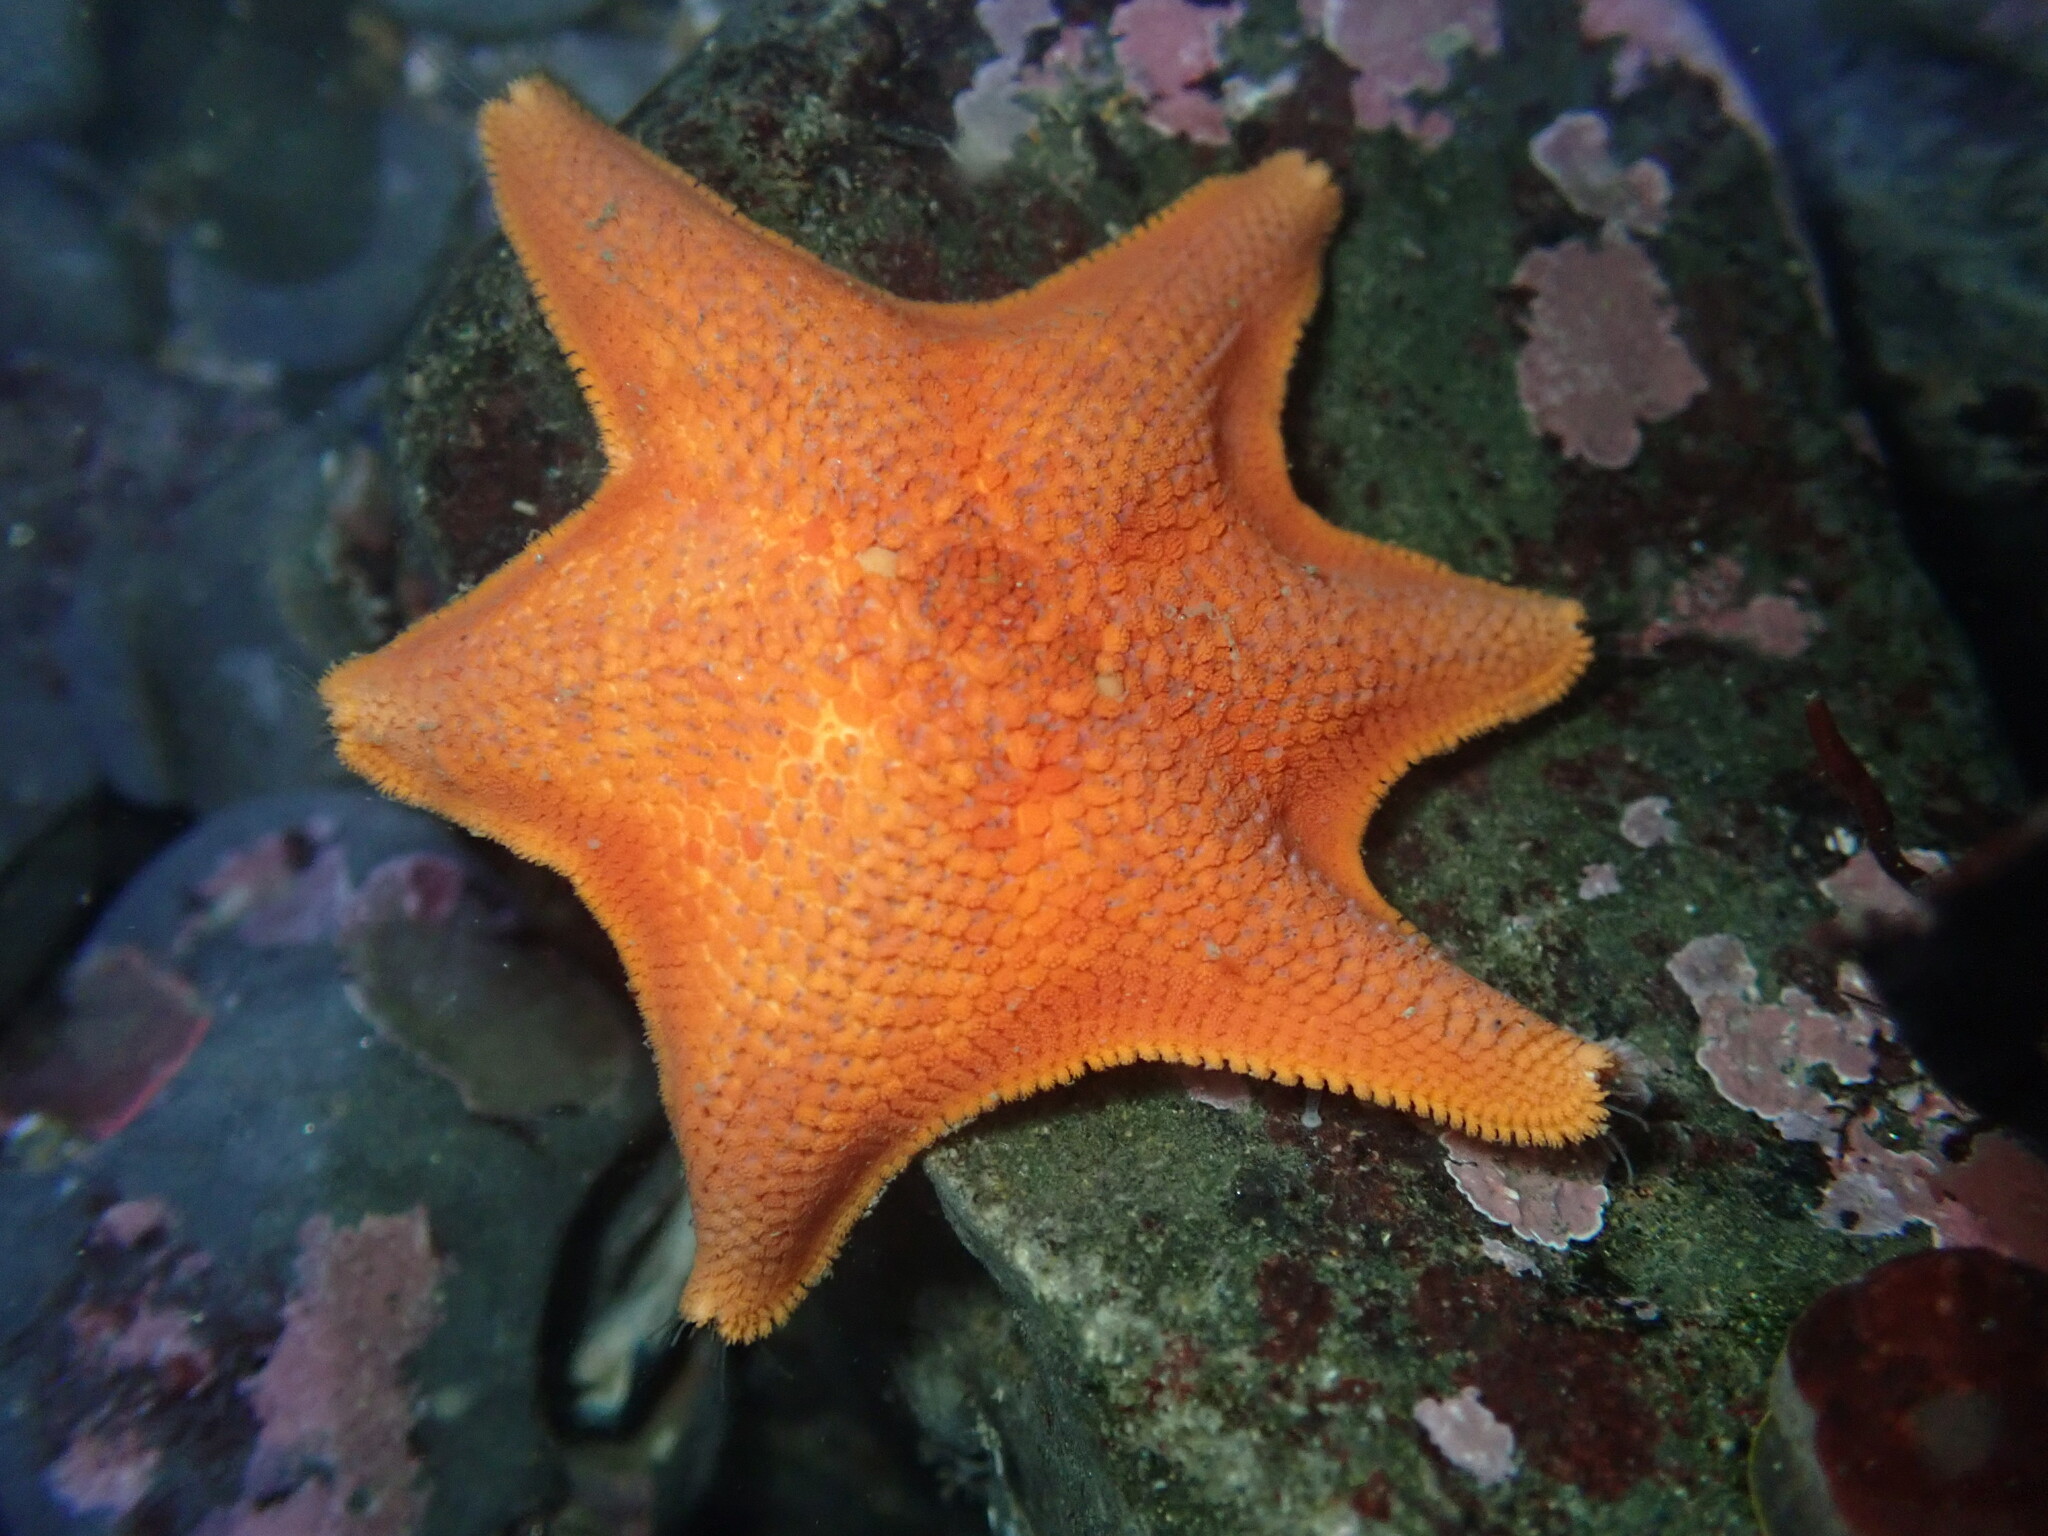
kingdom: Animalia
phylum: Echinodermata
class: Asteroidea
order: Valvatida
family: Asterinidae
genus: Patiria
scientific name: Patiria miniata
